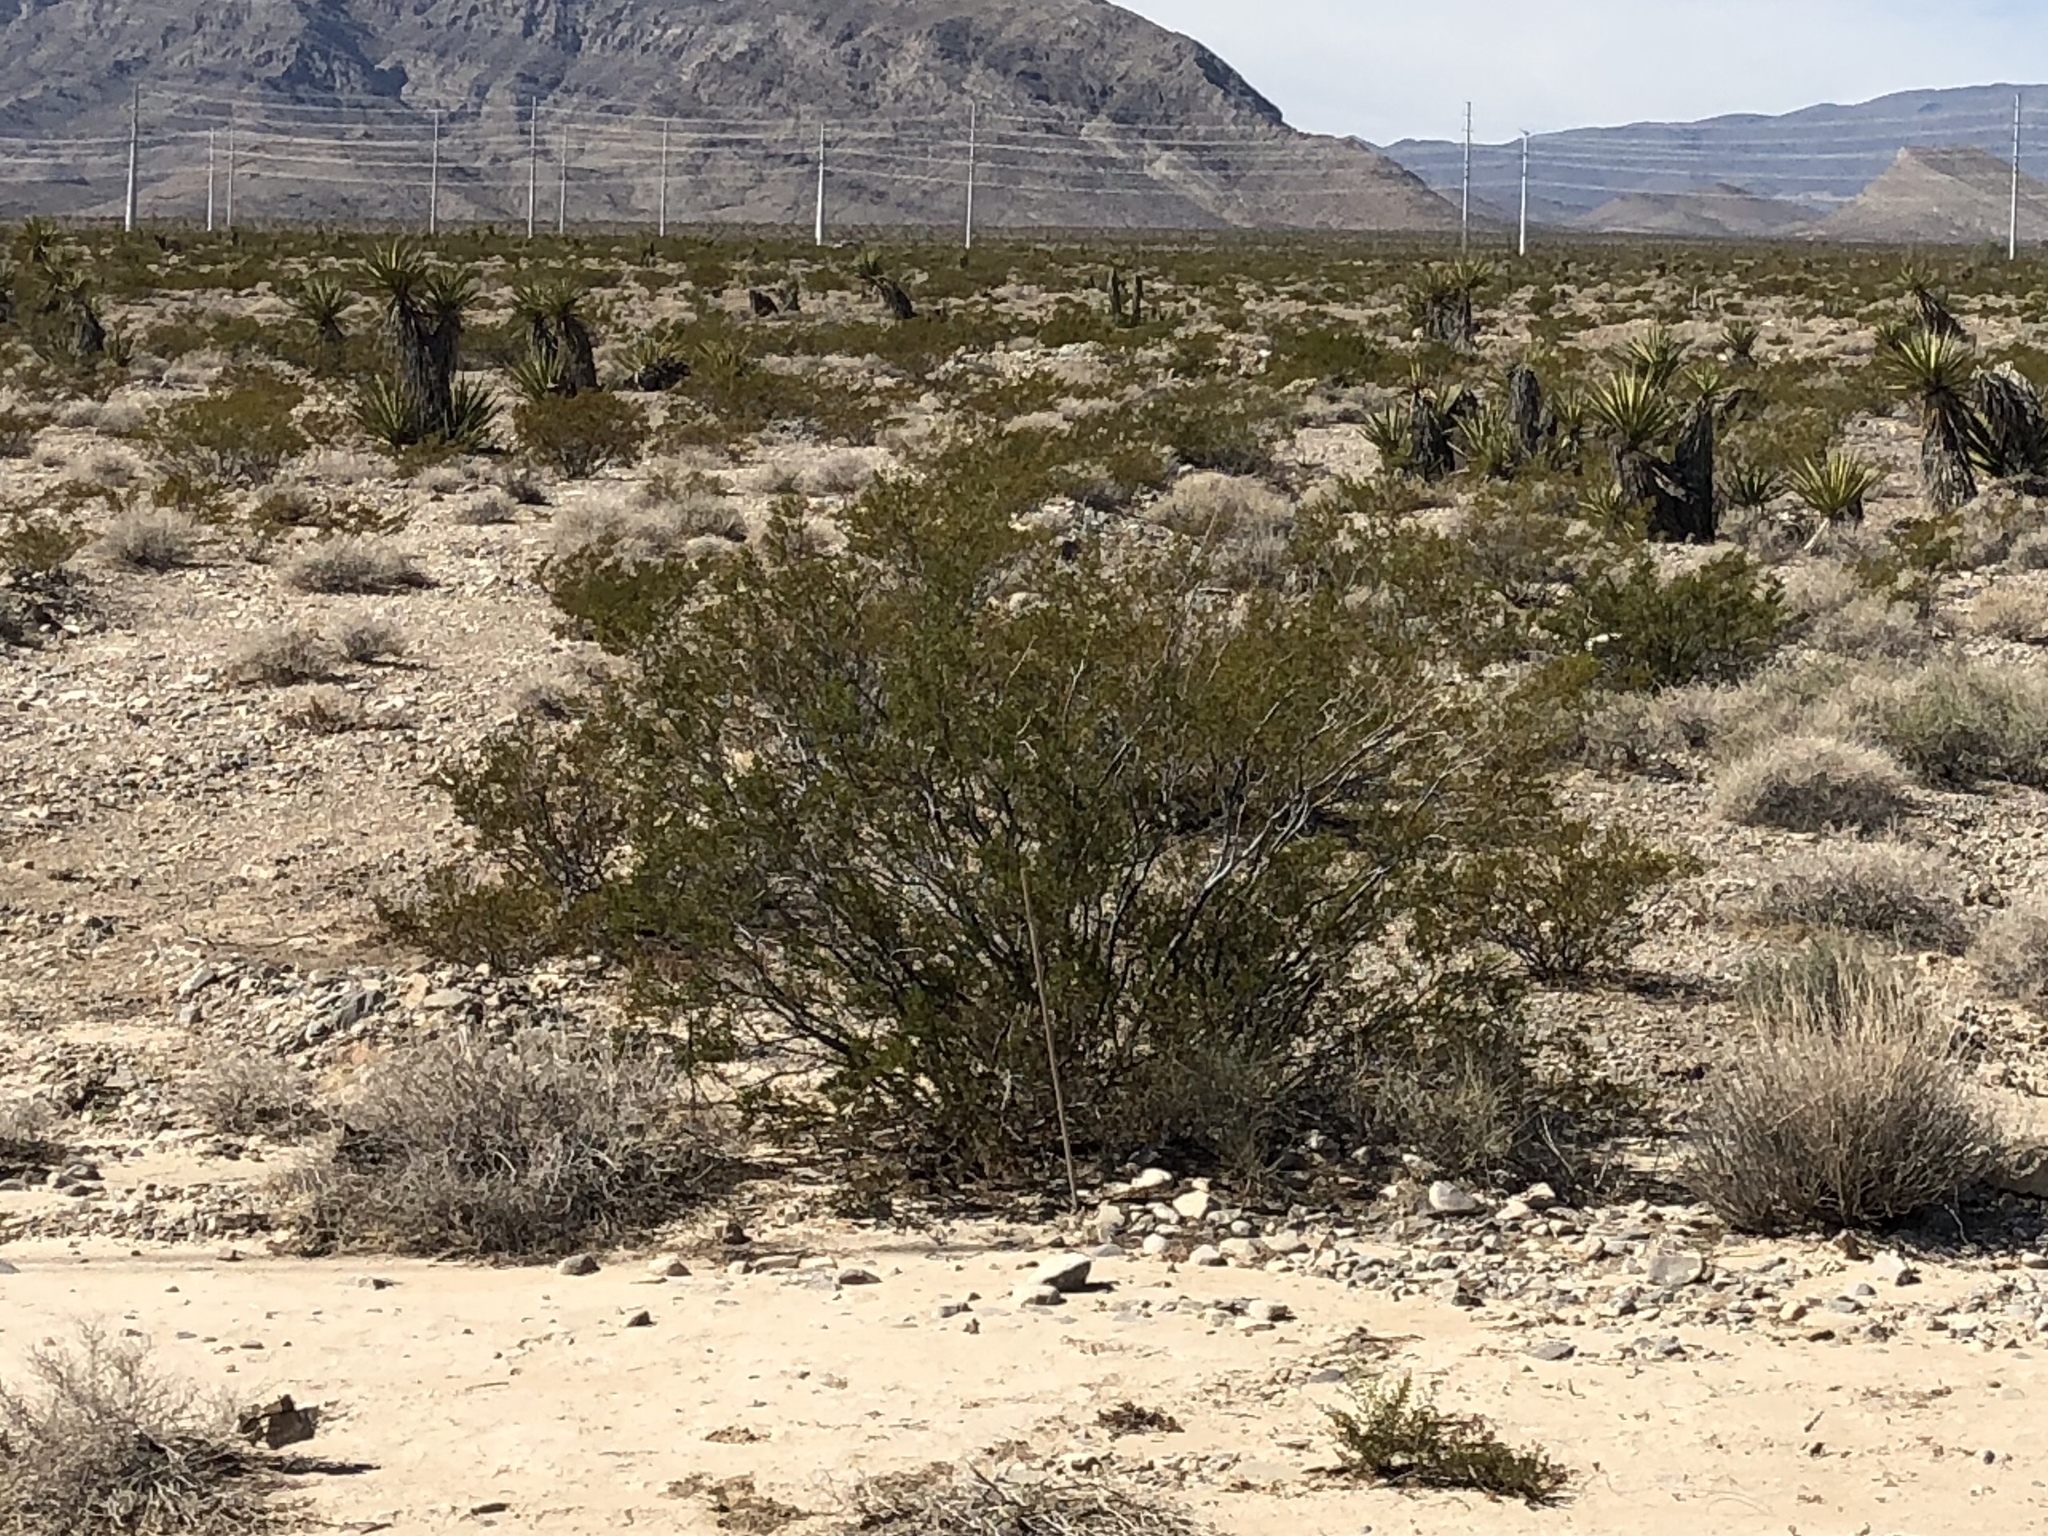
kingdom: Plantae
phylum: Tracheophyta
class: Magnoliopsida
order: Zygophyllales
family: Zygophyllaceae
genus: Larrea
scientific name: Larrea tridentata
